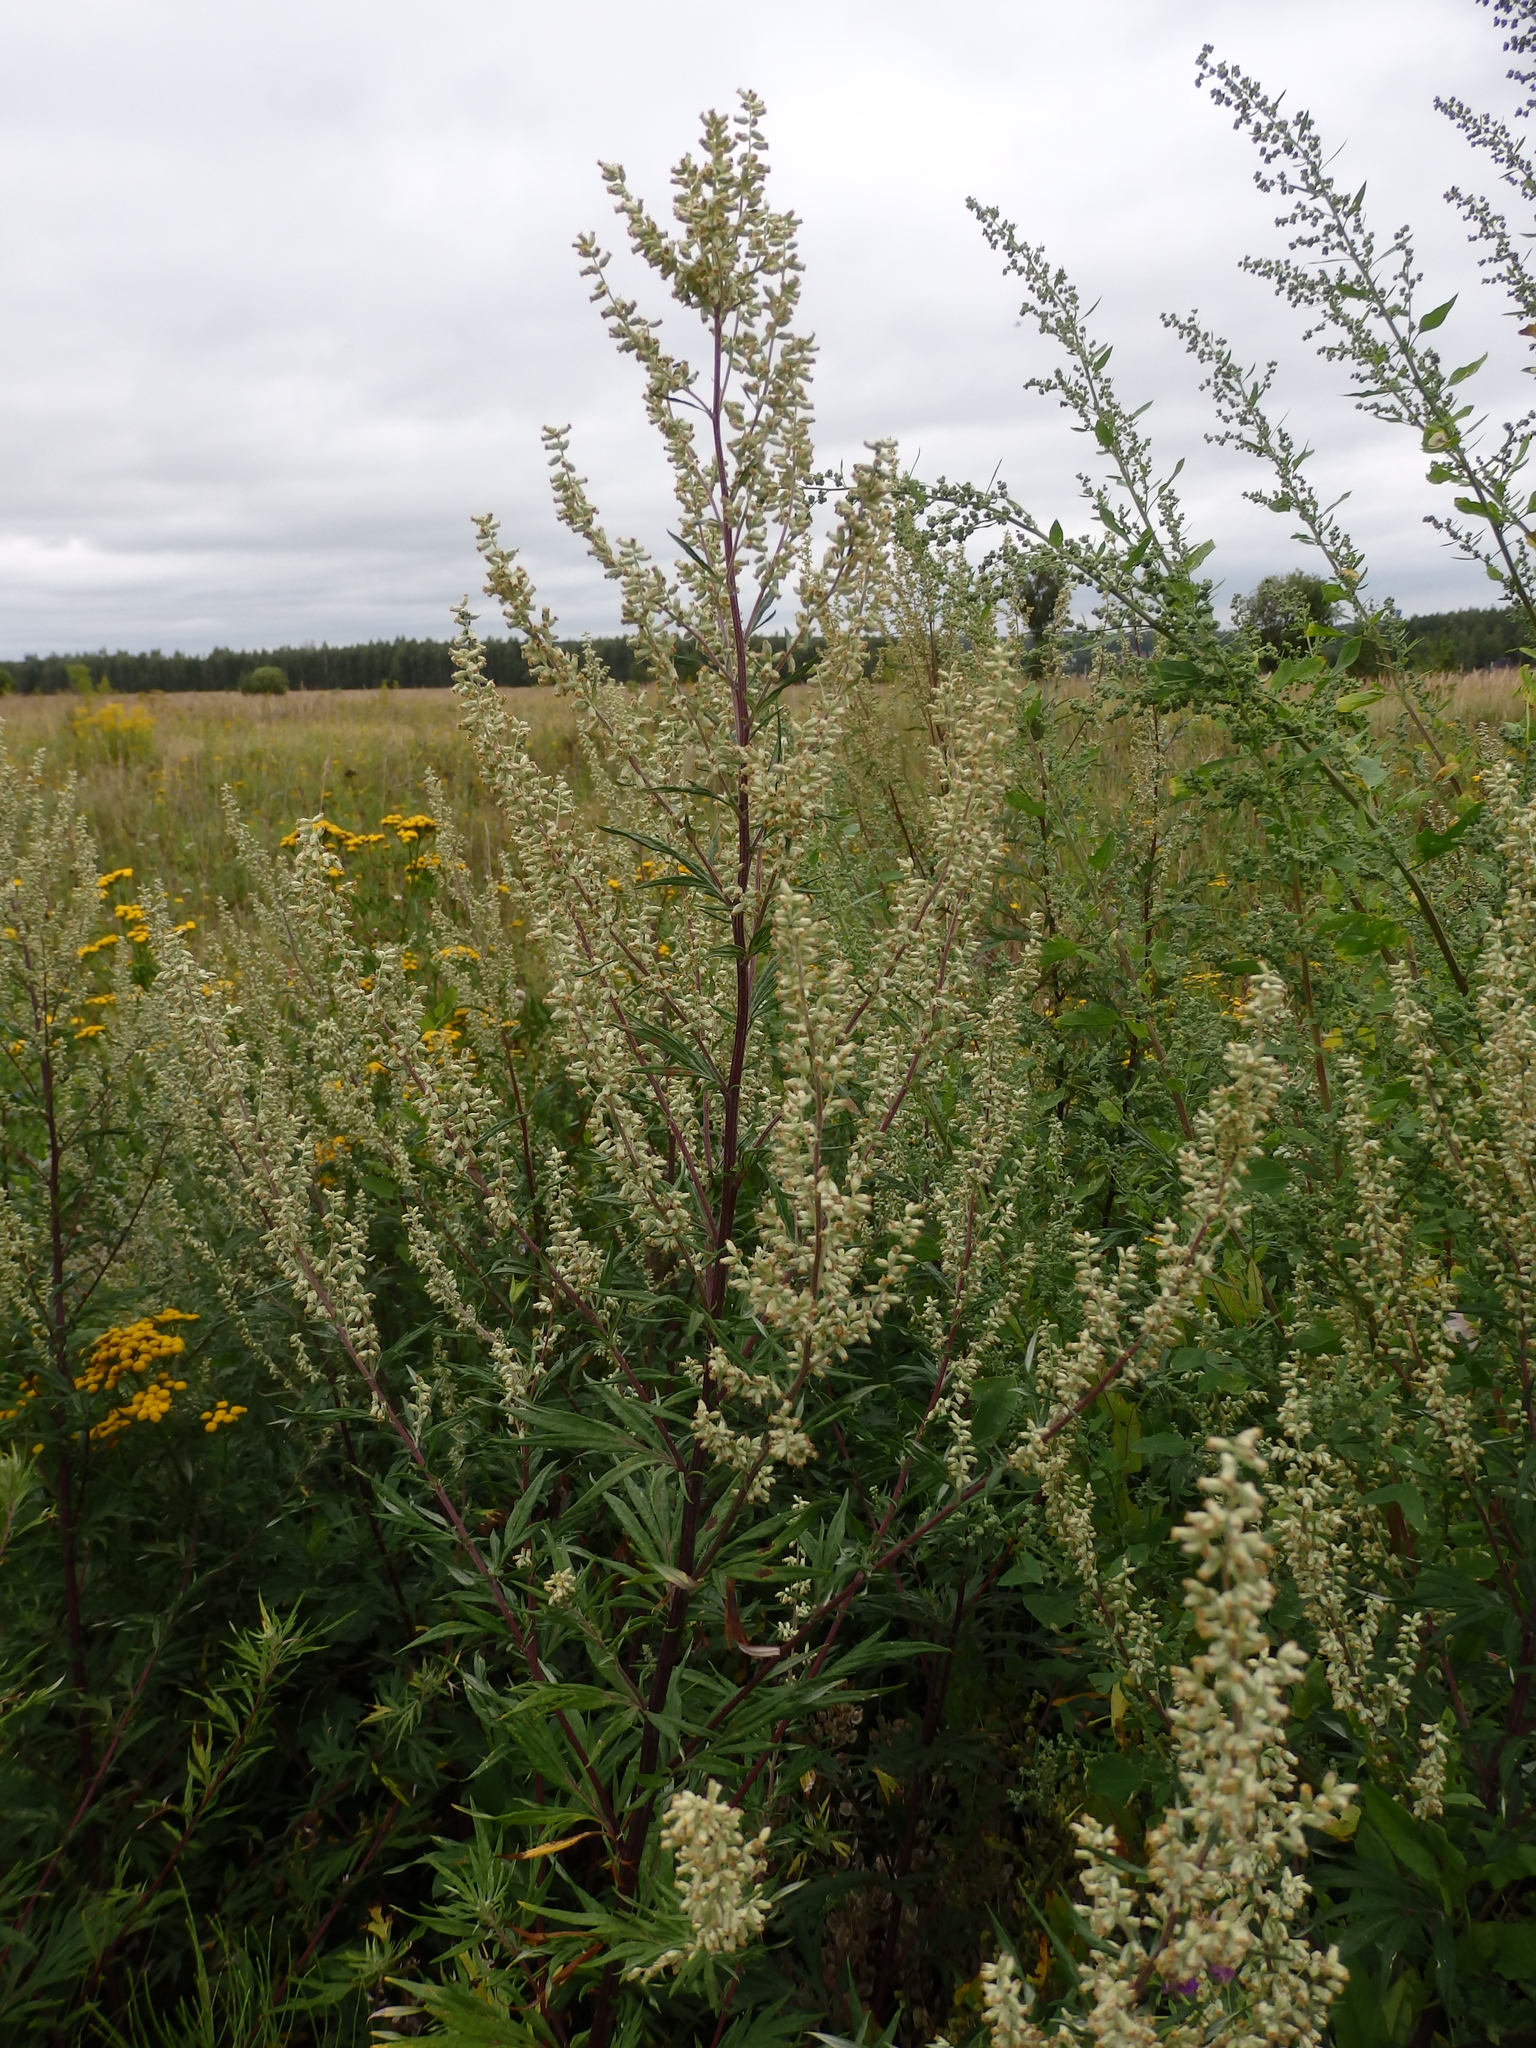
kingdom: Plantae
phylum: Tracheophyta
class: Magnoliopsida
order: Asterales
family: Asteraceae
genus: Artemisia
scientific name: Artemisia vulgaris
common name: Mugwort
